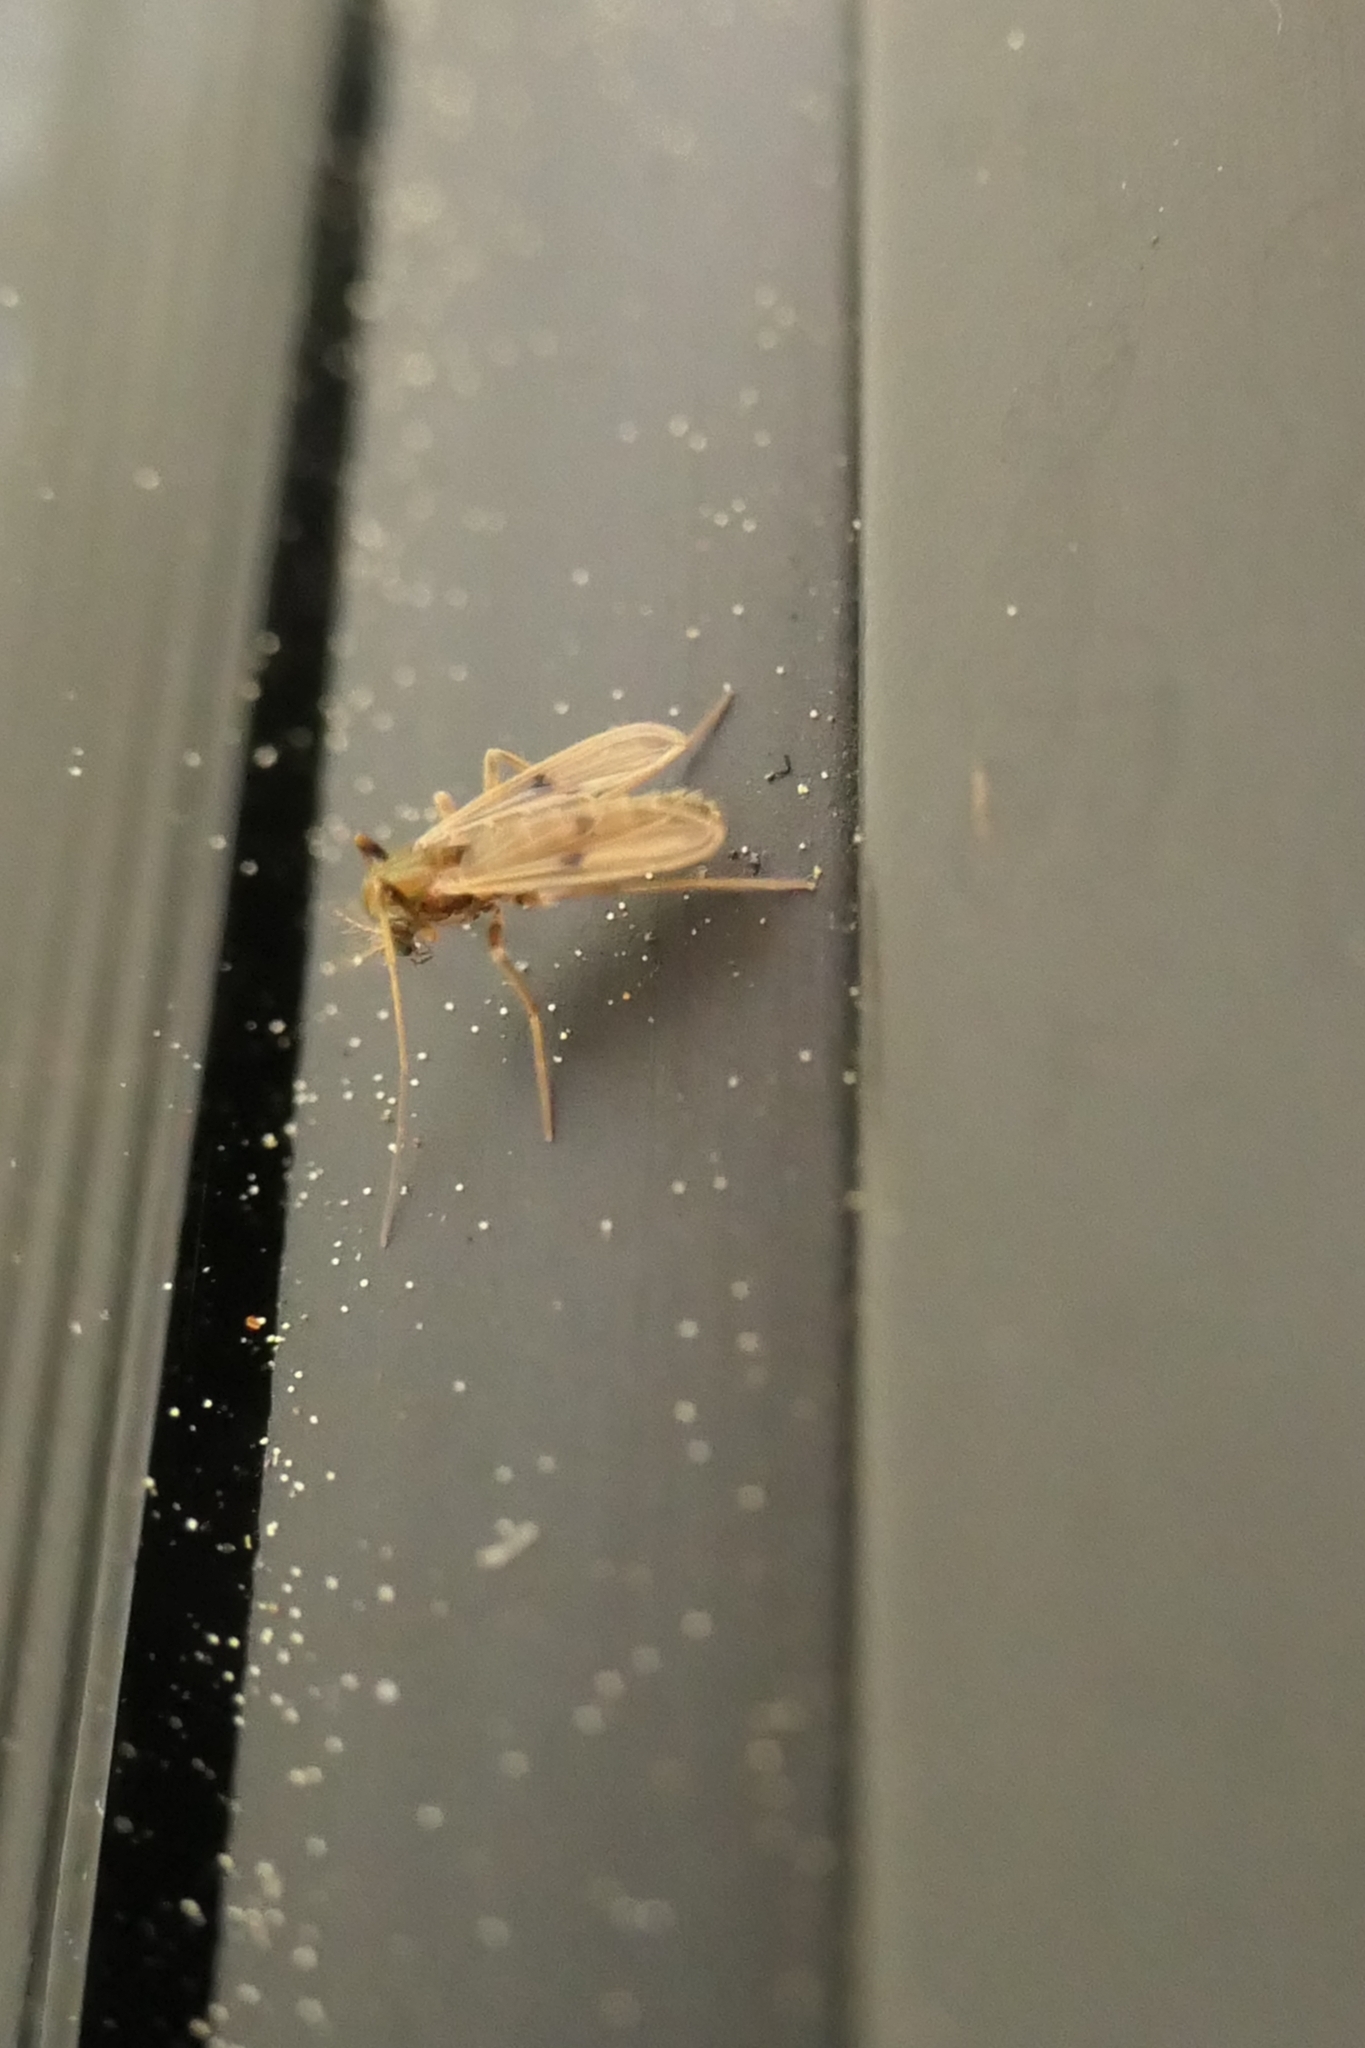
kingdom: Animalia
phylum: Arthropoda
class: Insecta
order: Diptera
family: Chironomidae
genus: Polypedilum
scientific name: Polypedilum opimum
